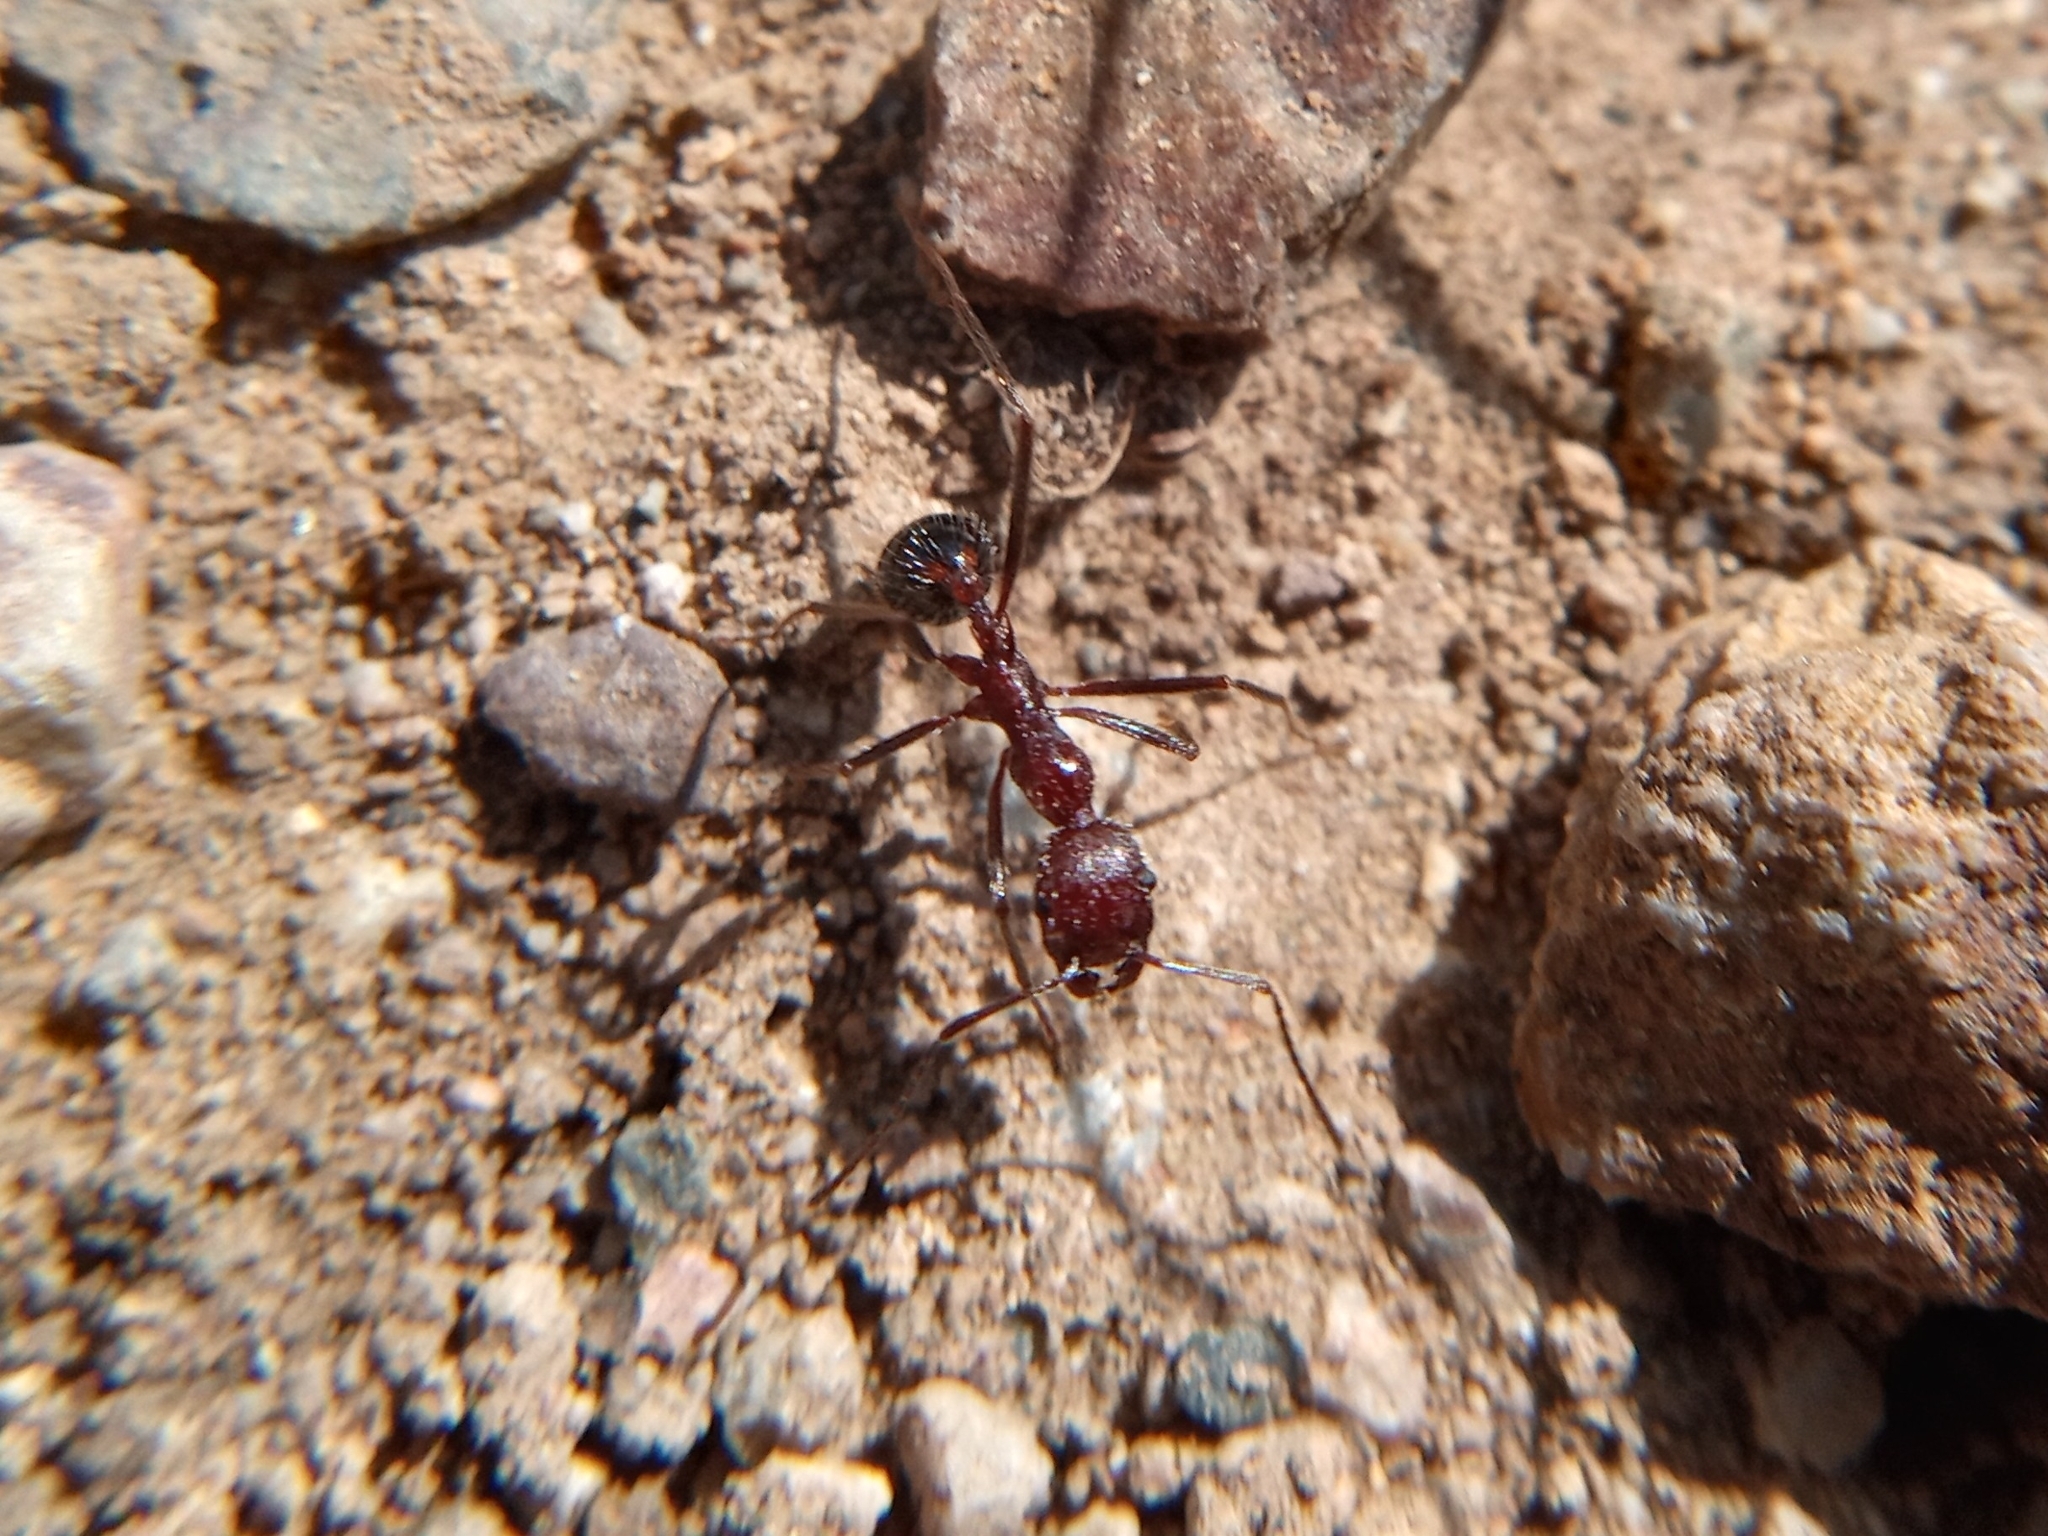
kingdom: Animalia
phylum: Arthropoda
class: Insecta
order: Hymenoptera
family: Formicidae
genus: Novomessor
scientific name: Novomessor albisetosa
